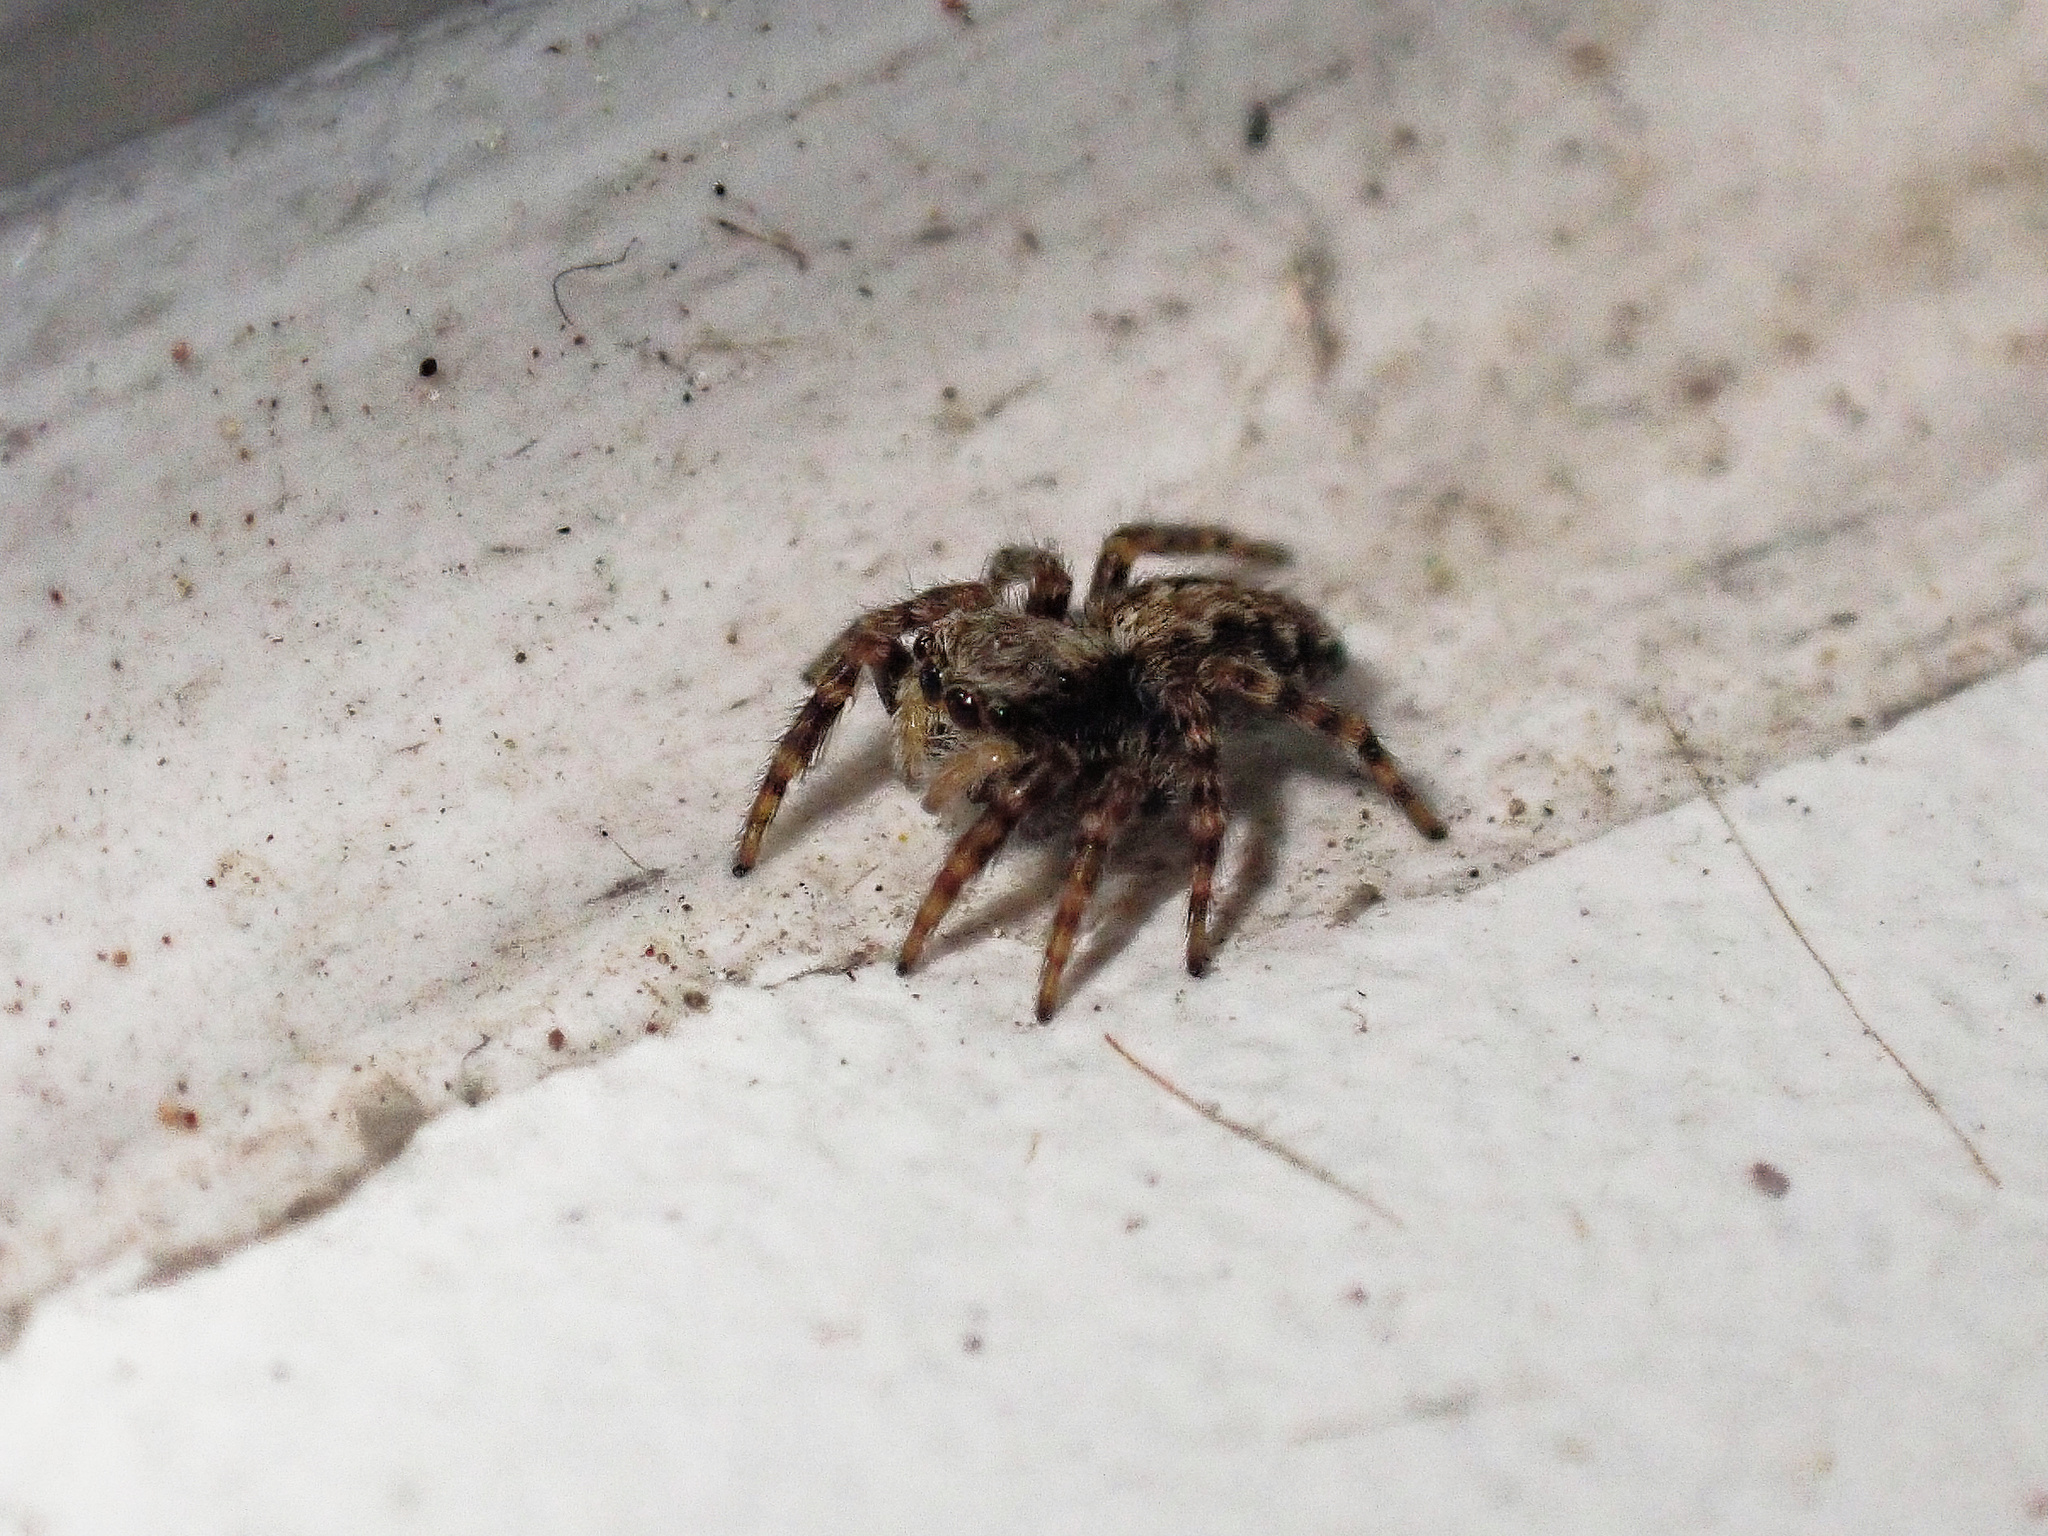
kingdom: Animalia
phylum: Arthropoda
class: Arachnida
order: Araneae
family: Salticidae
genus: Pseudeuophrys
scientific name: Pseudeuophrys lanigera
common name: Jumping spider
